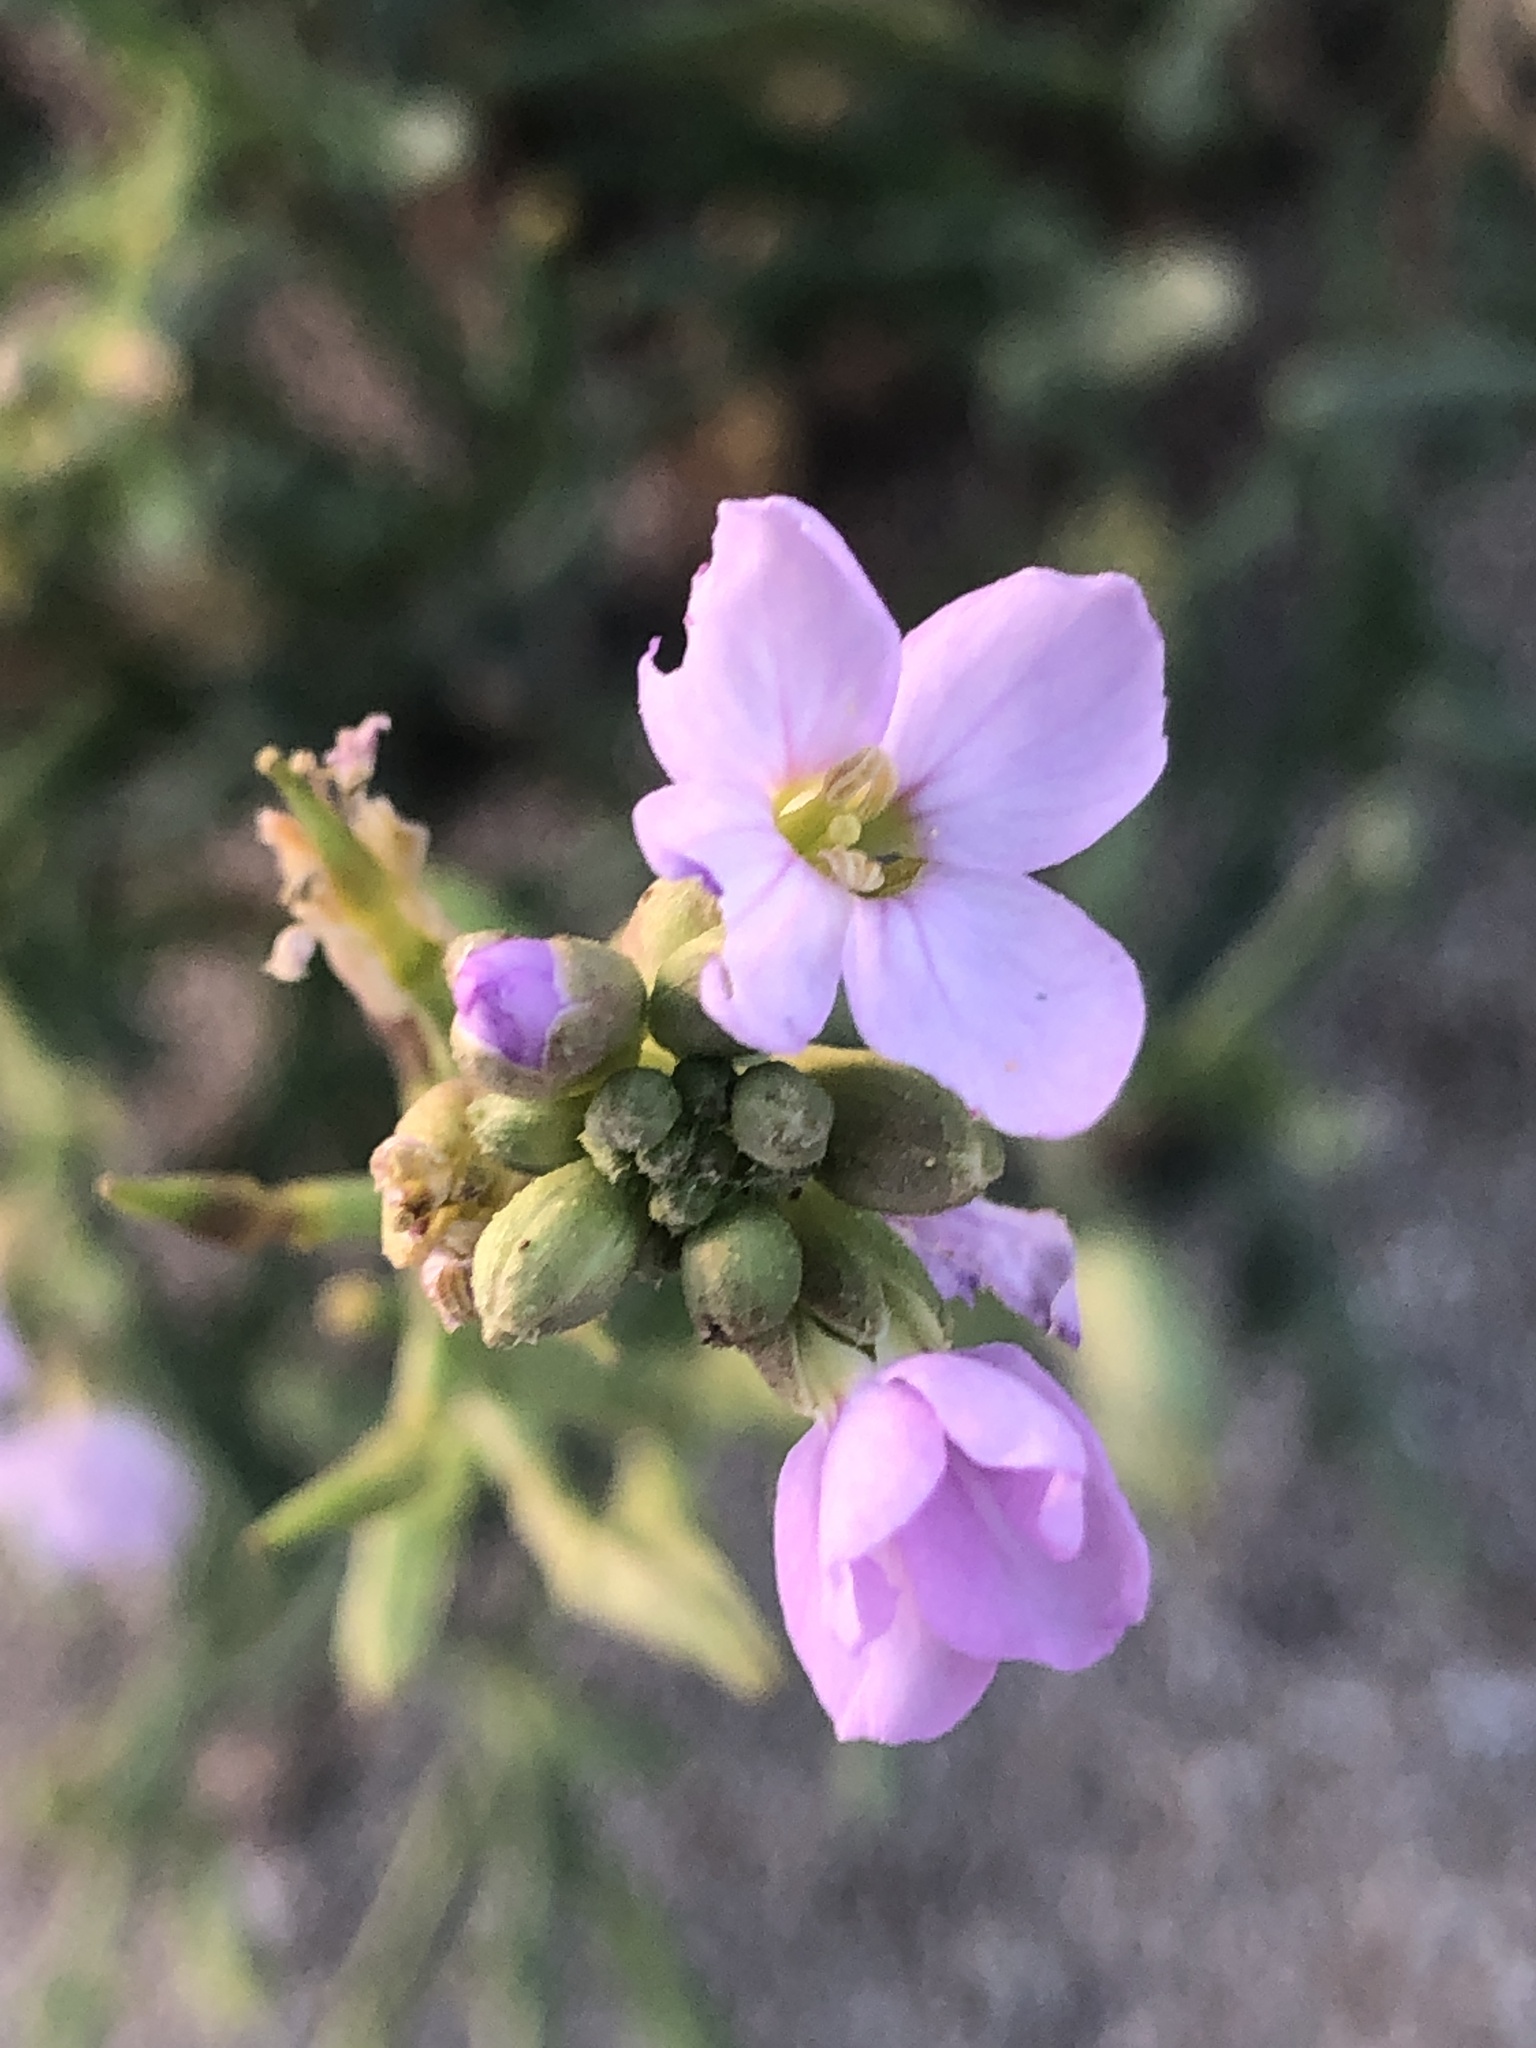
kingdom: Plantae
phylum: Tracheophyta
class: Magnoliopsida
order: Brassicales
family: Brassicaceae
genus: Cakile
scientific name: Cakile maritima
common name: Sea rocket
